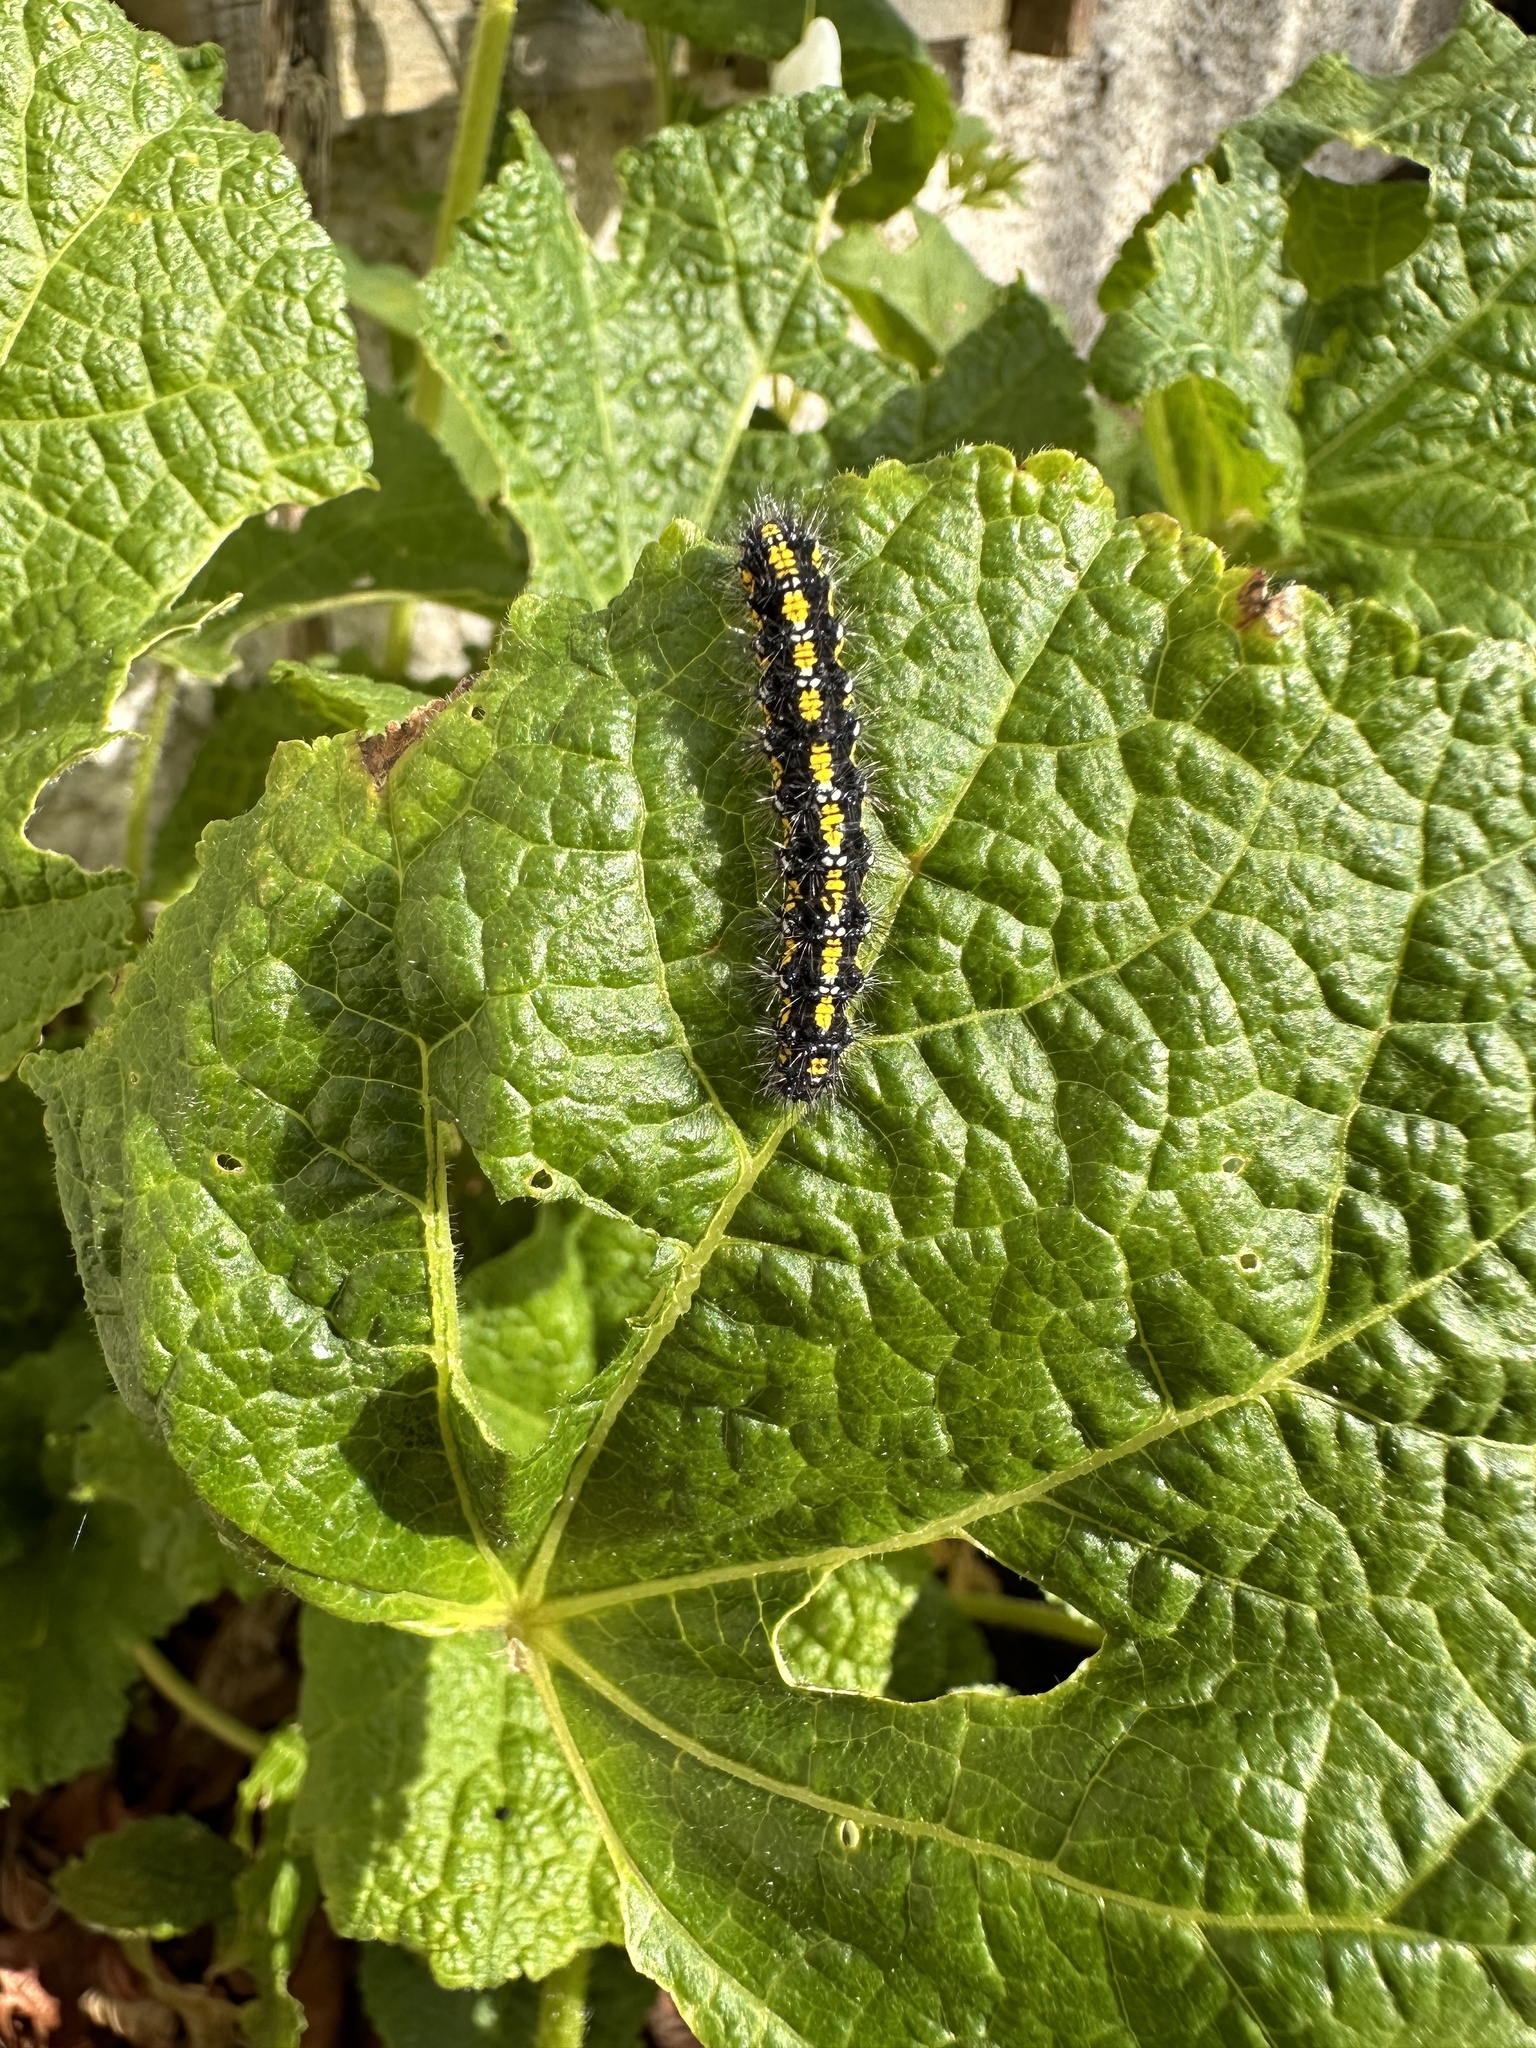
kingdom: Animalia
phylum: Arthropoda
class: Insecta
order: Lepidoptera
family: Erebidae
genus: Callimorpha
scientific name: Callimorpha dominula
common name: Scarlet tiger
